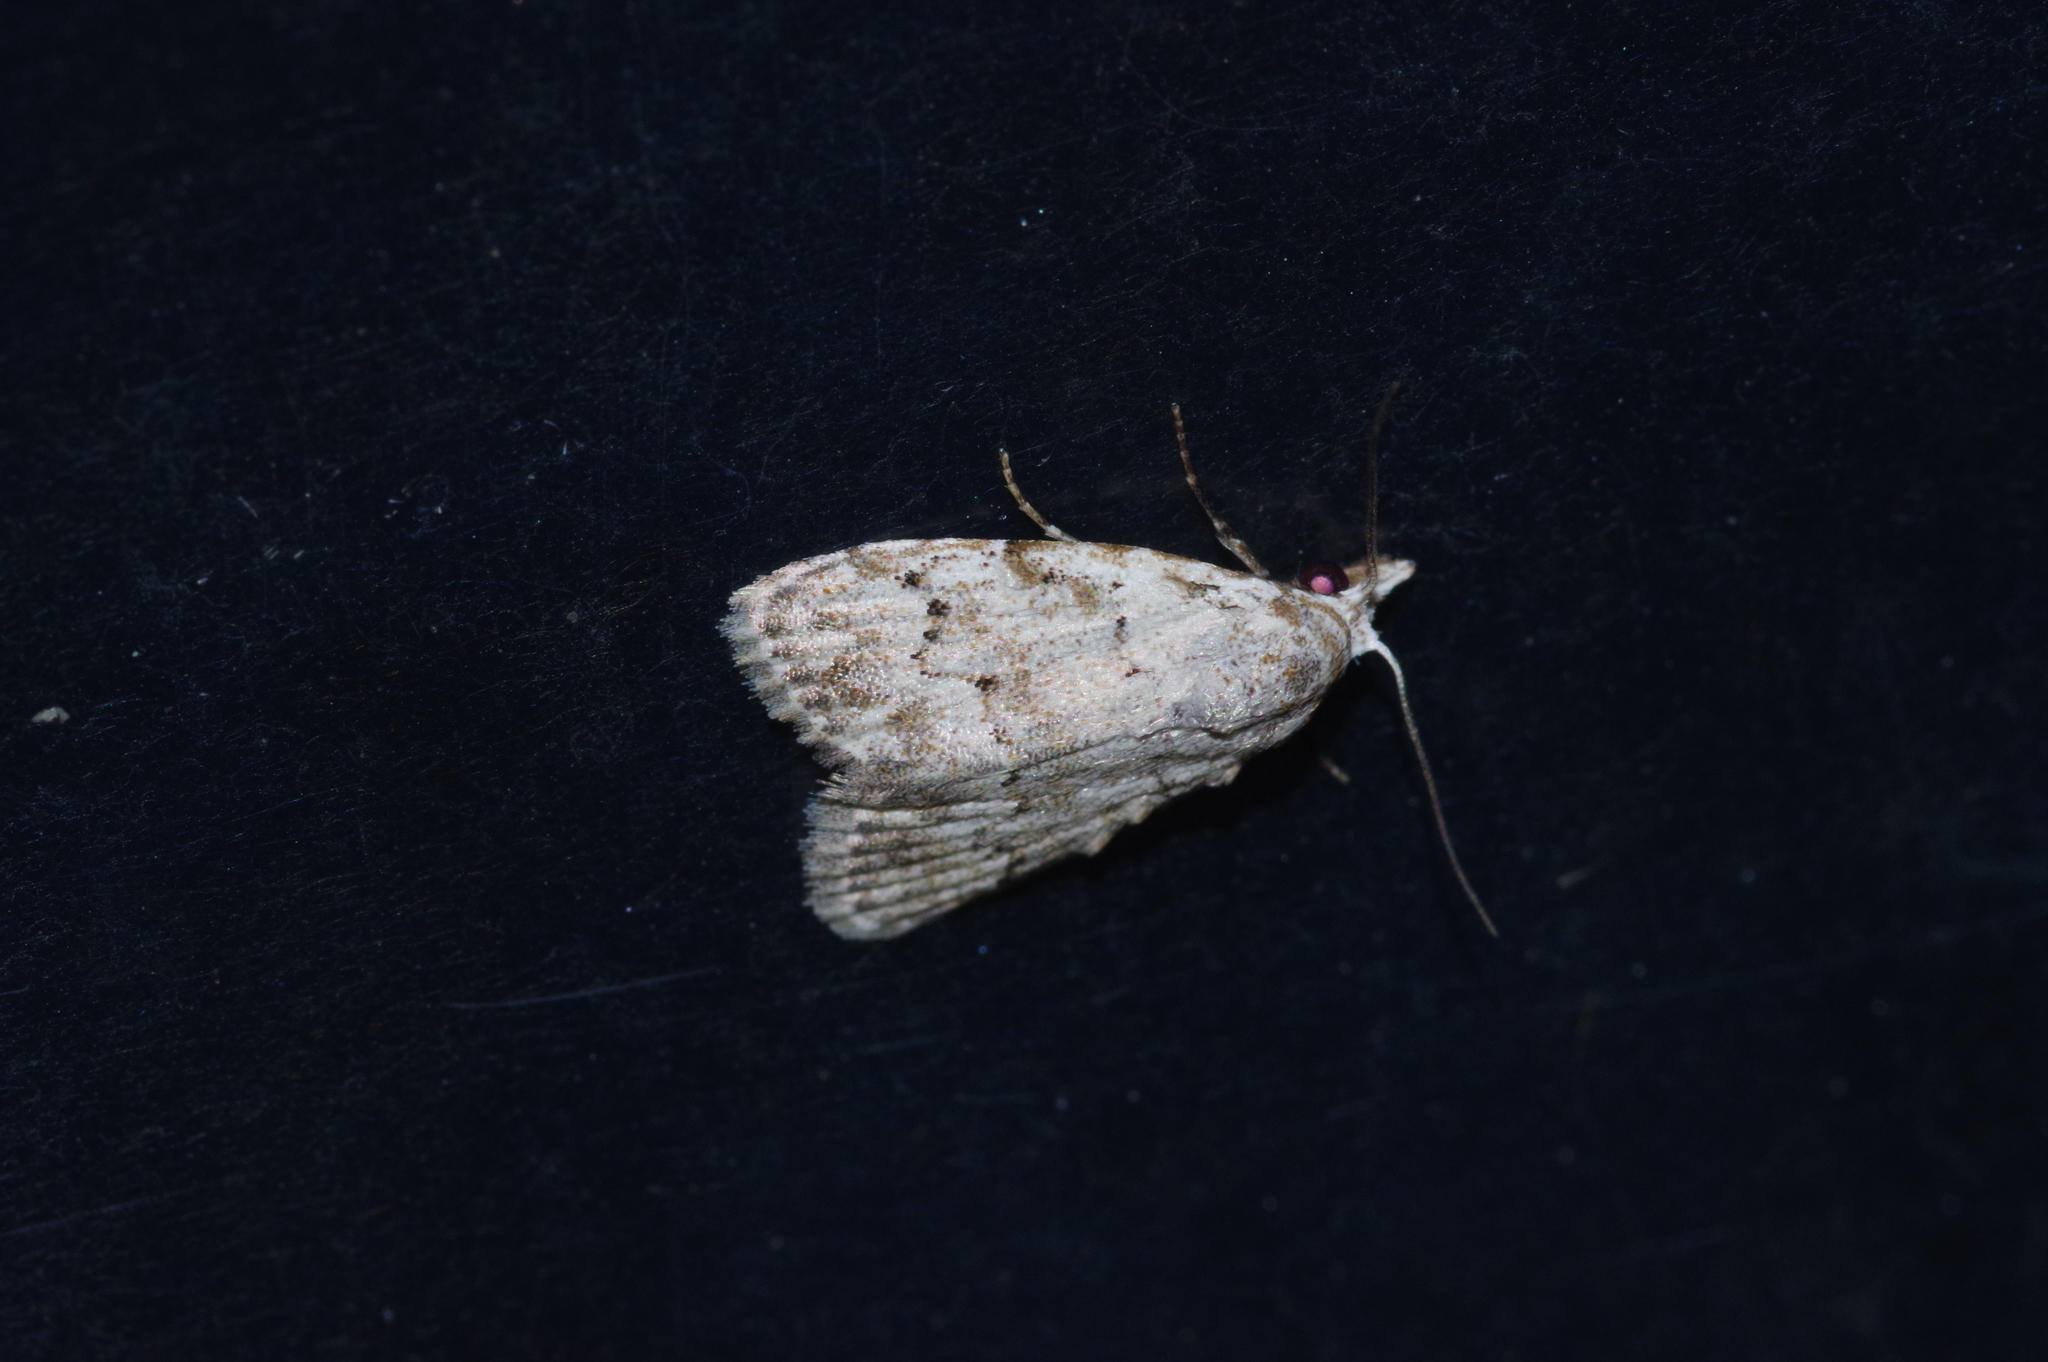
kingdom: Animalia
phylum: Arthropoda
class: Insecta
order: Lepidoptera
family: Nolidae
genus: Nola
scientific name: Nola thyrophora
